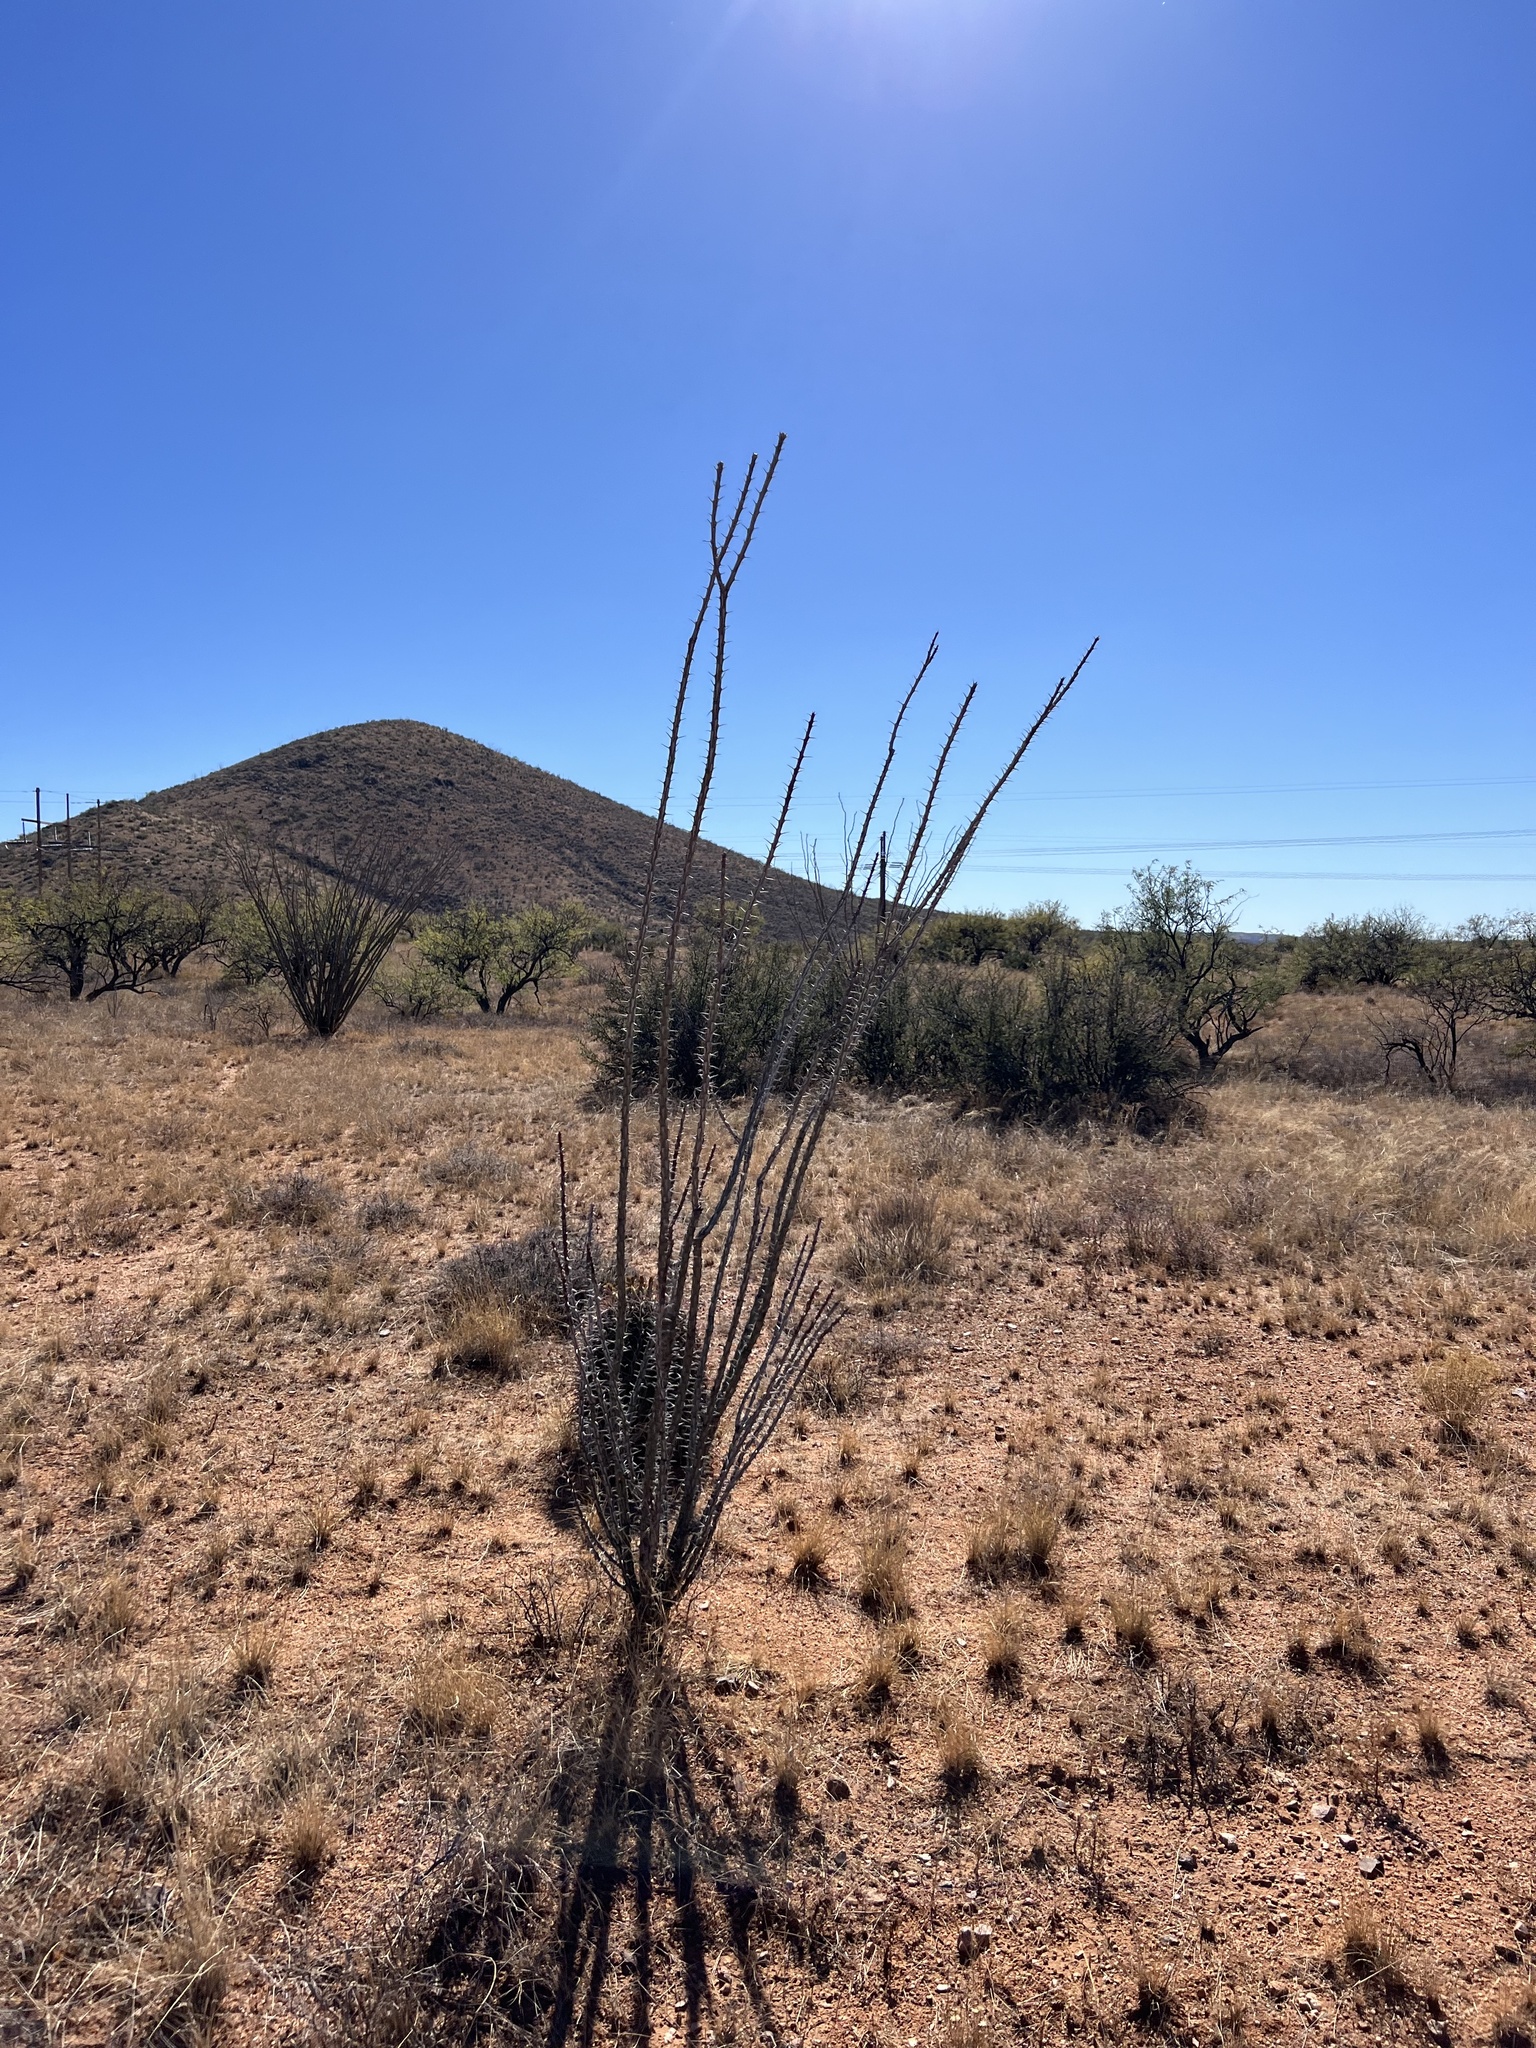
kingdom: Plantae
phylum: Tracheophyta
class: Magnoliopsida
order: Ericales
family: Fouquieriaceae
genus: Fouquieria
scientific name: Fouquieria splendens
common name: Vine-cactus
